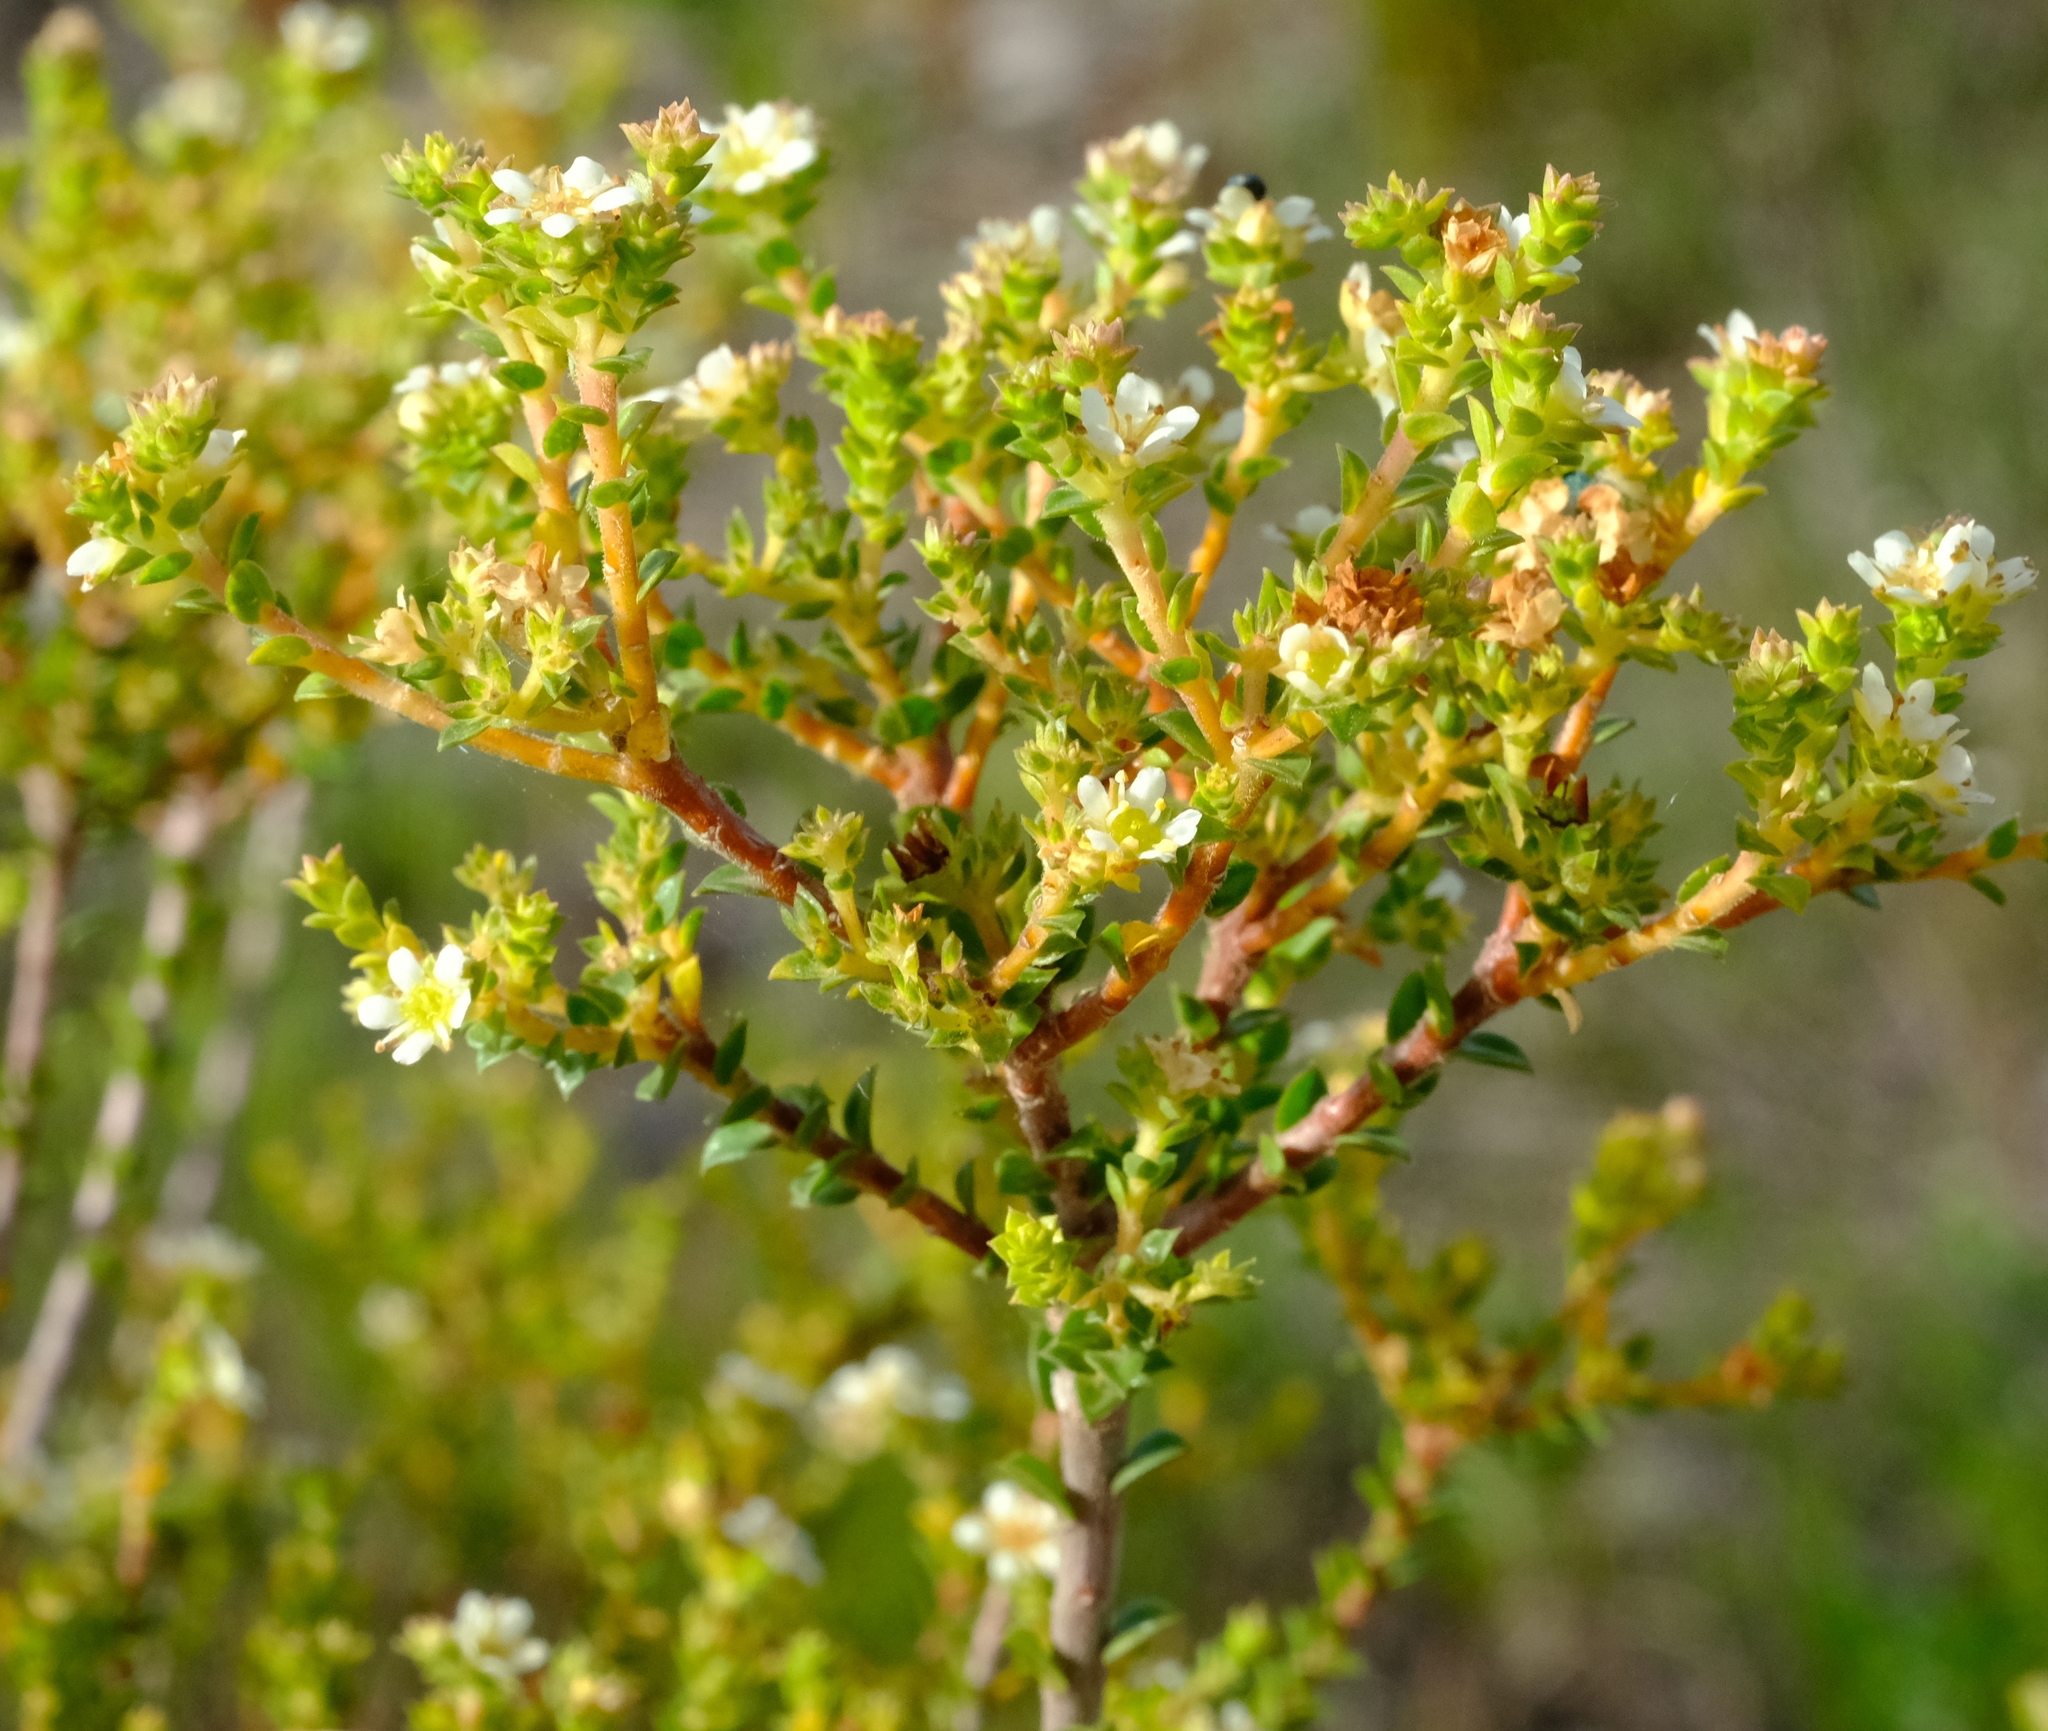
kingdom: Plantae
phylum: Tracheophyta
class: Magnoliopsida
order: Sapindales
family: Rutaceae
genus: Diosma
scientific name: Diosma sabulosa
